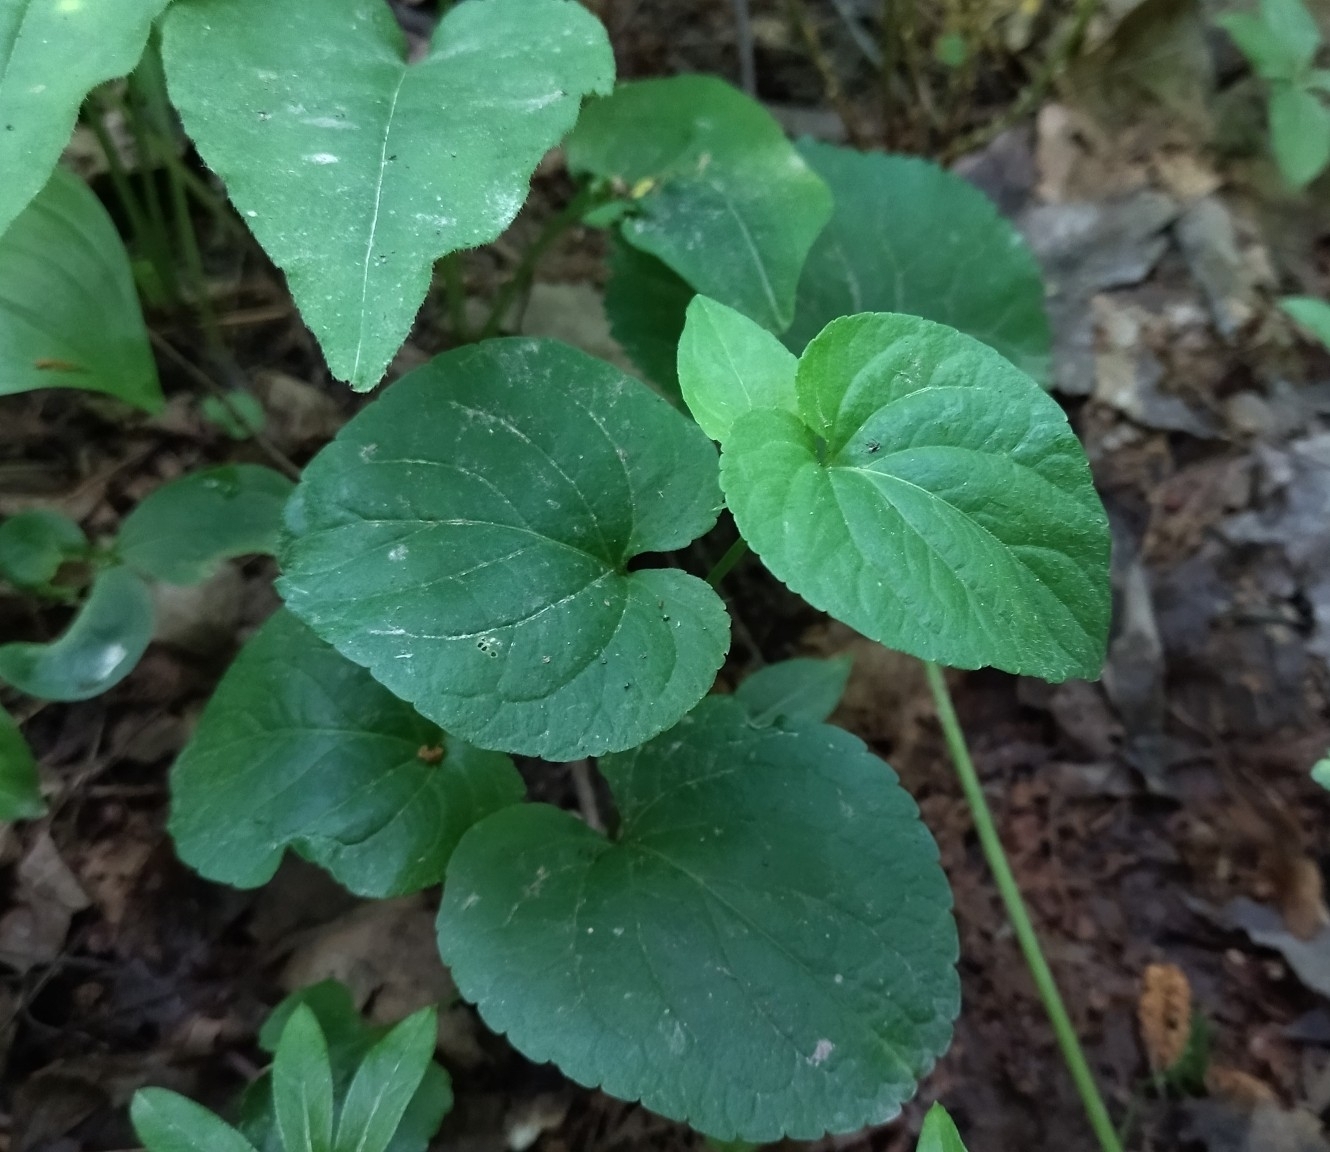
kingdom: Plantae
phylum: Tracheophyta
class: Magnoliopsida
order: Malpighiales
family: Violaceae
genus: Viola
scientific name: Viola mirabilis
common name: Wonder violet
